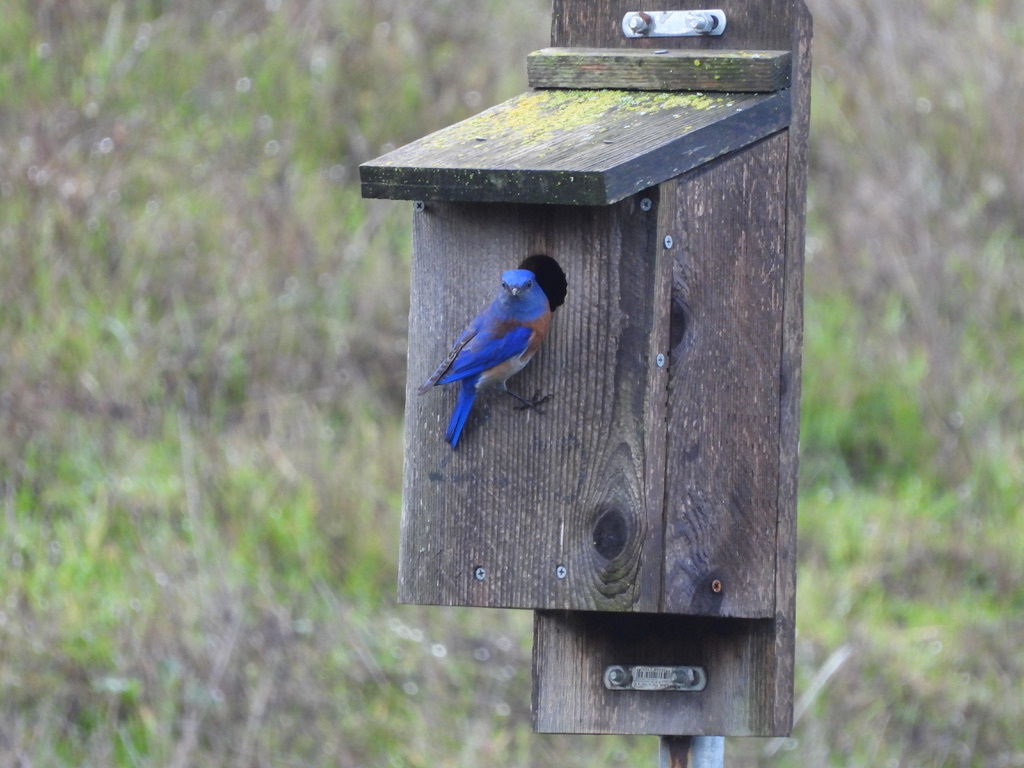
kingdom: Animalia
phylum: Chordata
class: Aves
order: Passeriformes
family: Turdidae
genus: Sialia
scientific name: Sialia mexicana
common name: Western bluebird
